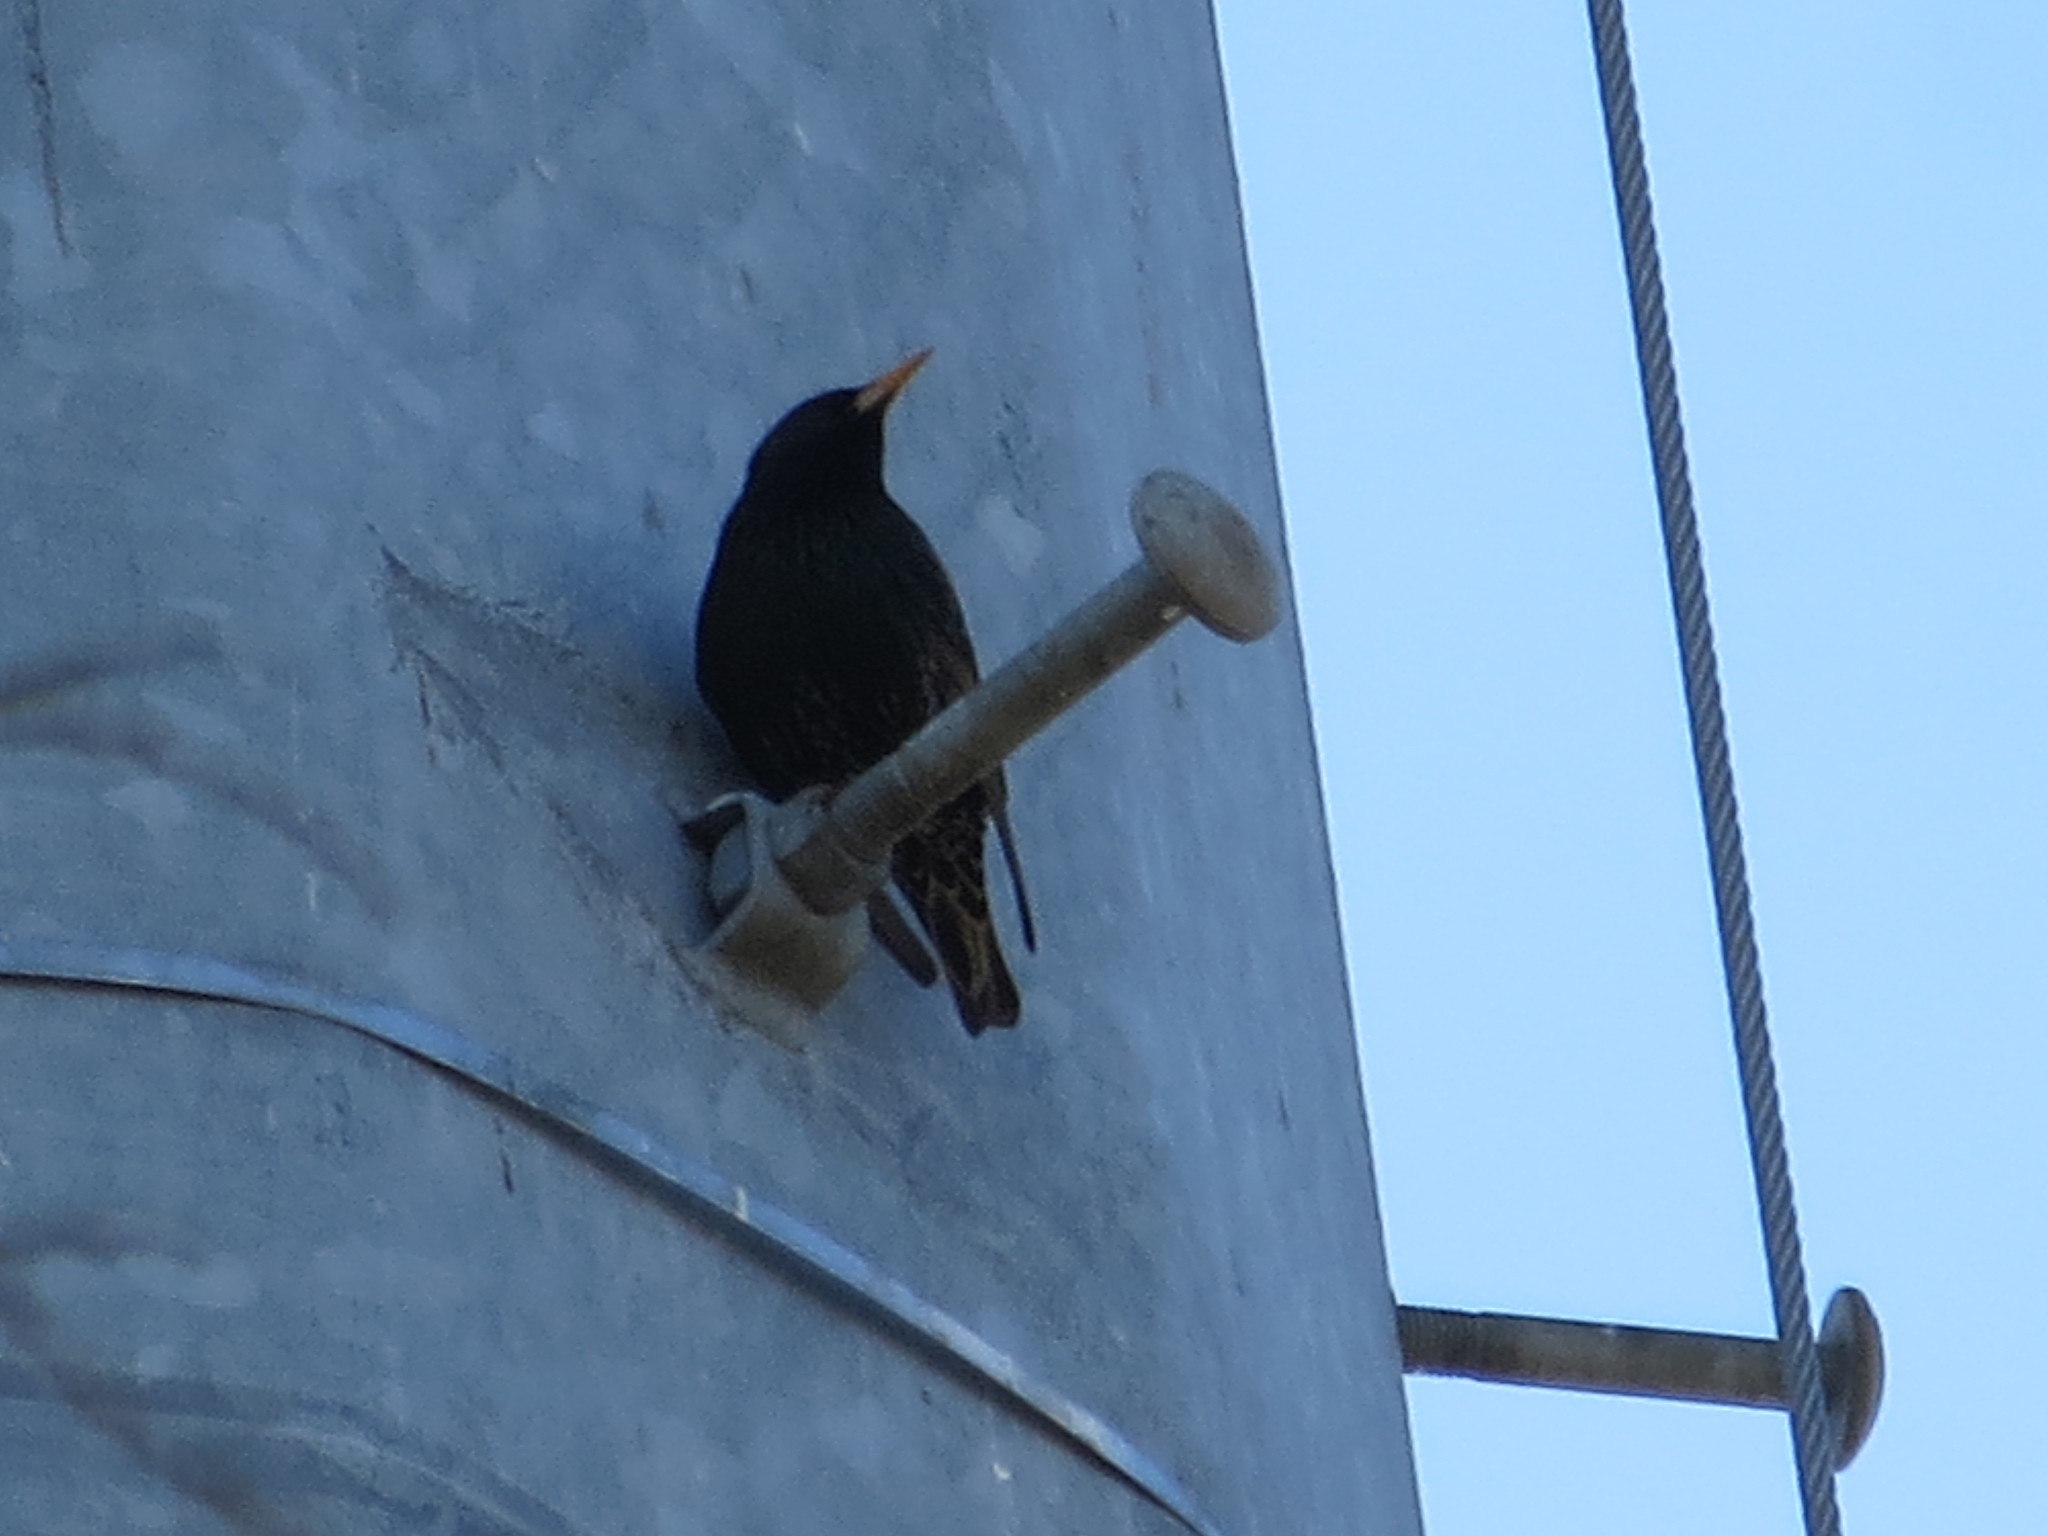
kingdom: Animalia
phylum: Chordata
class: Aves
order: Passeriformes
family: Sturnidae
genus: Sturnus
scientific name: Sturnus vulgaris
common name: Common starling
